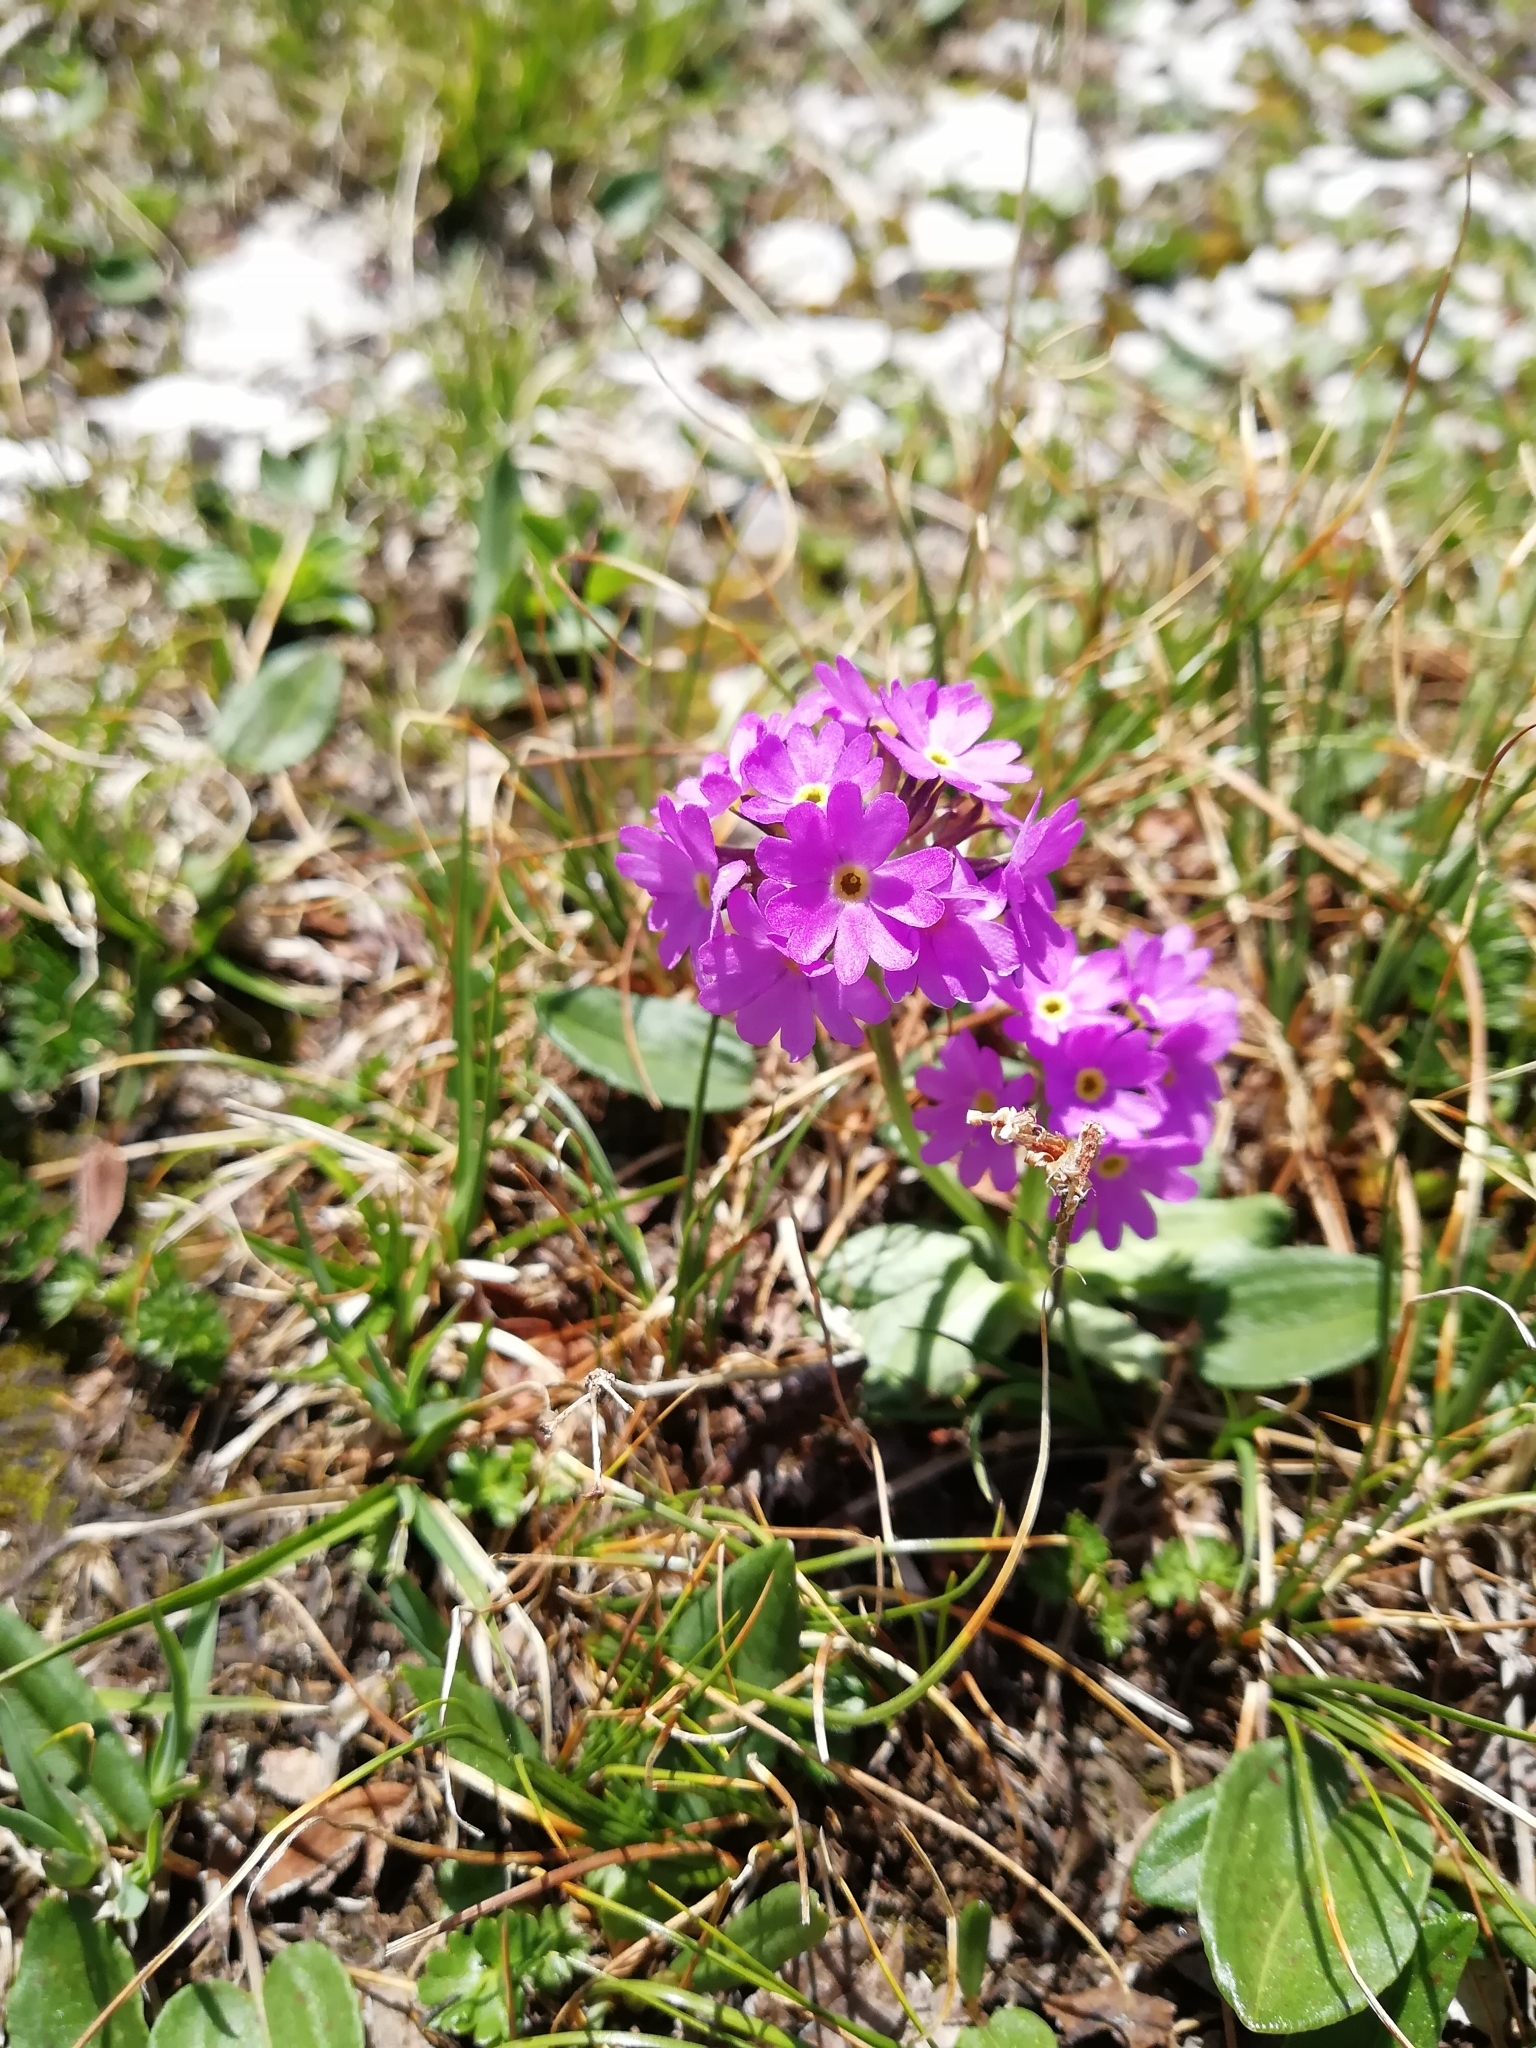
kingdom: Plantae
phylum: Tracheophyta
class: Magnoliopsida
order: Ericales
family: Primulaceae
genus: Primula
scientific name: Primula algida
